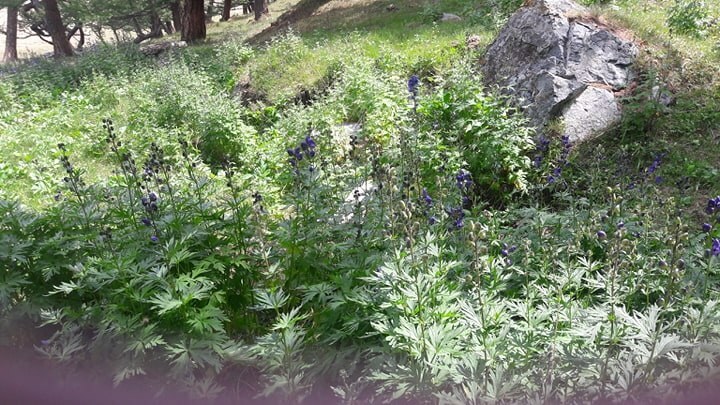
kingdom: Plantae
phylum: Tracheophyta
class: Magnoliopsida
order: Ranunculales
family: Ranunculaceae
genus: Aconitum
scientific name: Aconitum glandulosum
